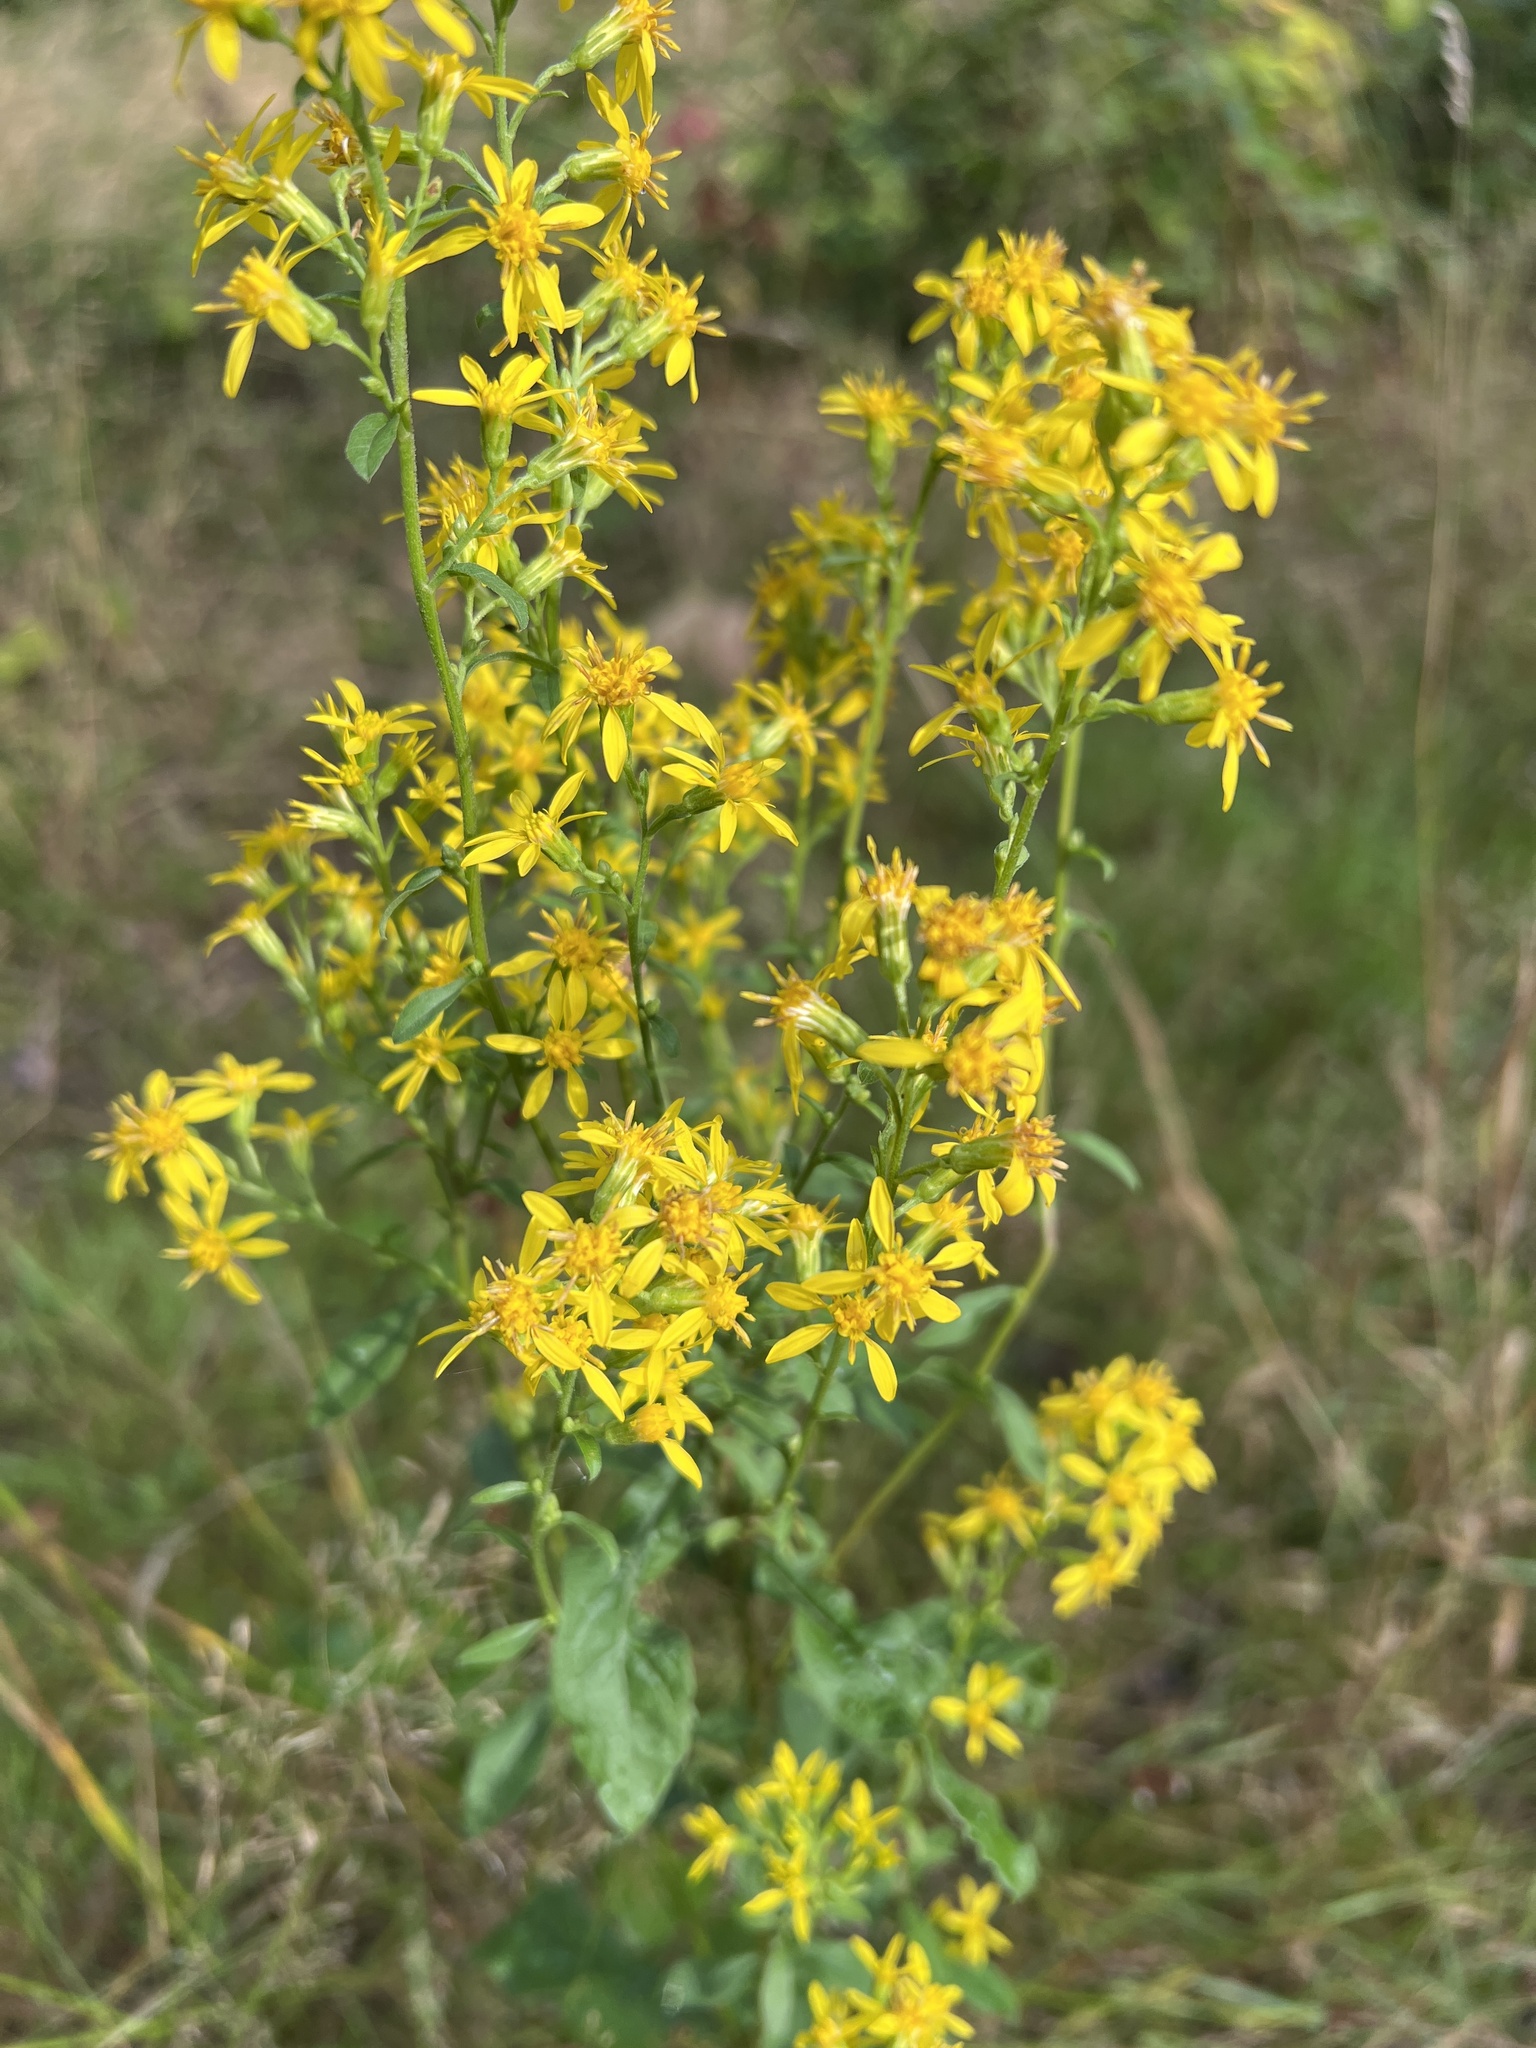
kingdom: Plantae
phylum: Tracheophyta
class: Magnoliopsida
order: Asterales
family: Asteraceae
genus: Solidago
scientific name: Solidago virgaurea
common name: Goldenrod
